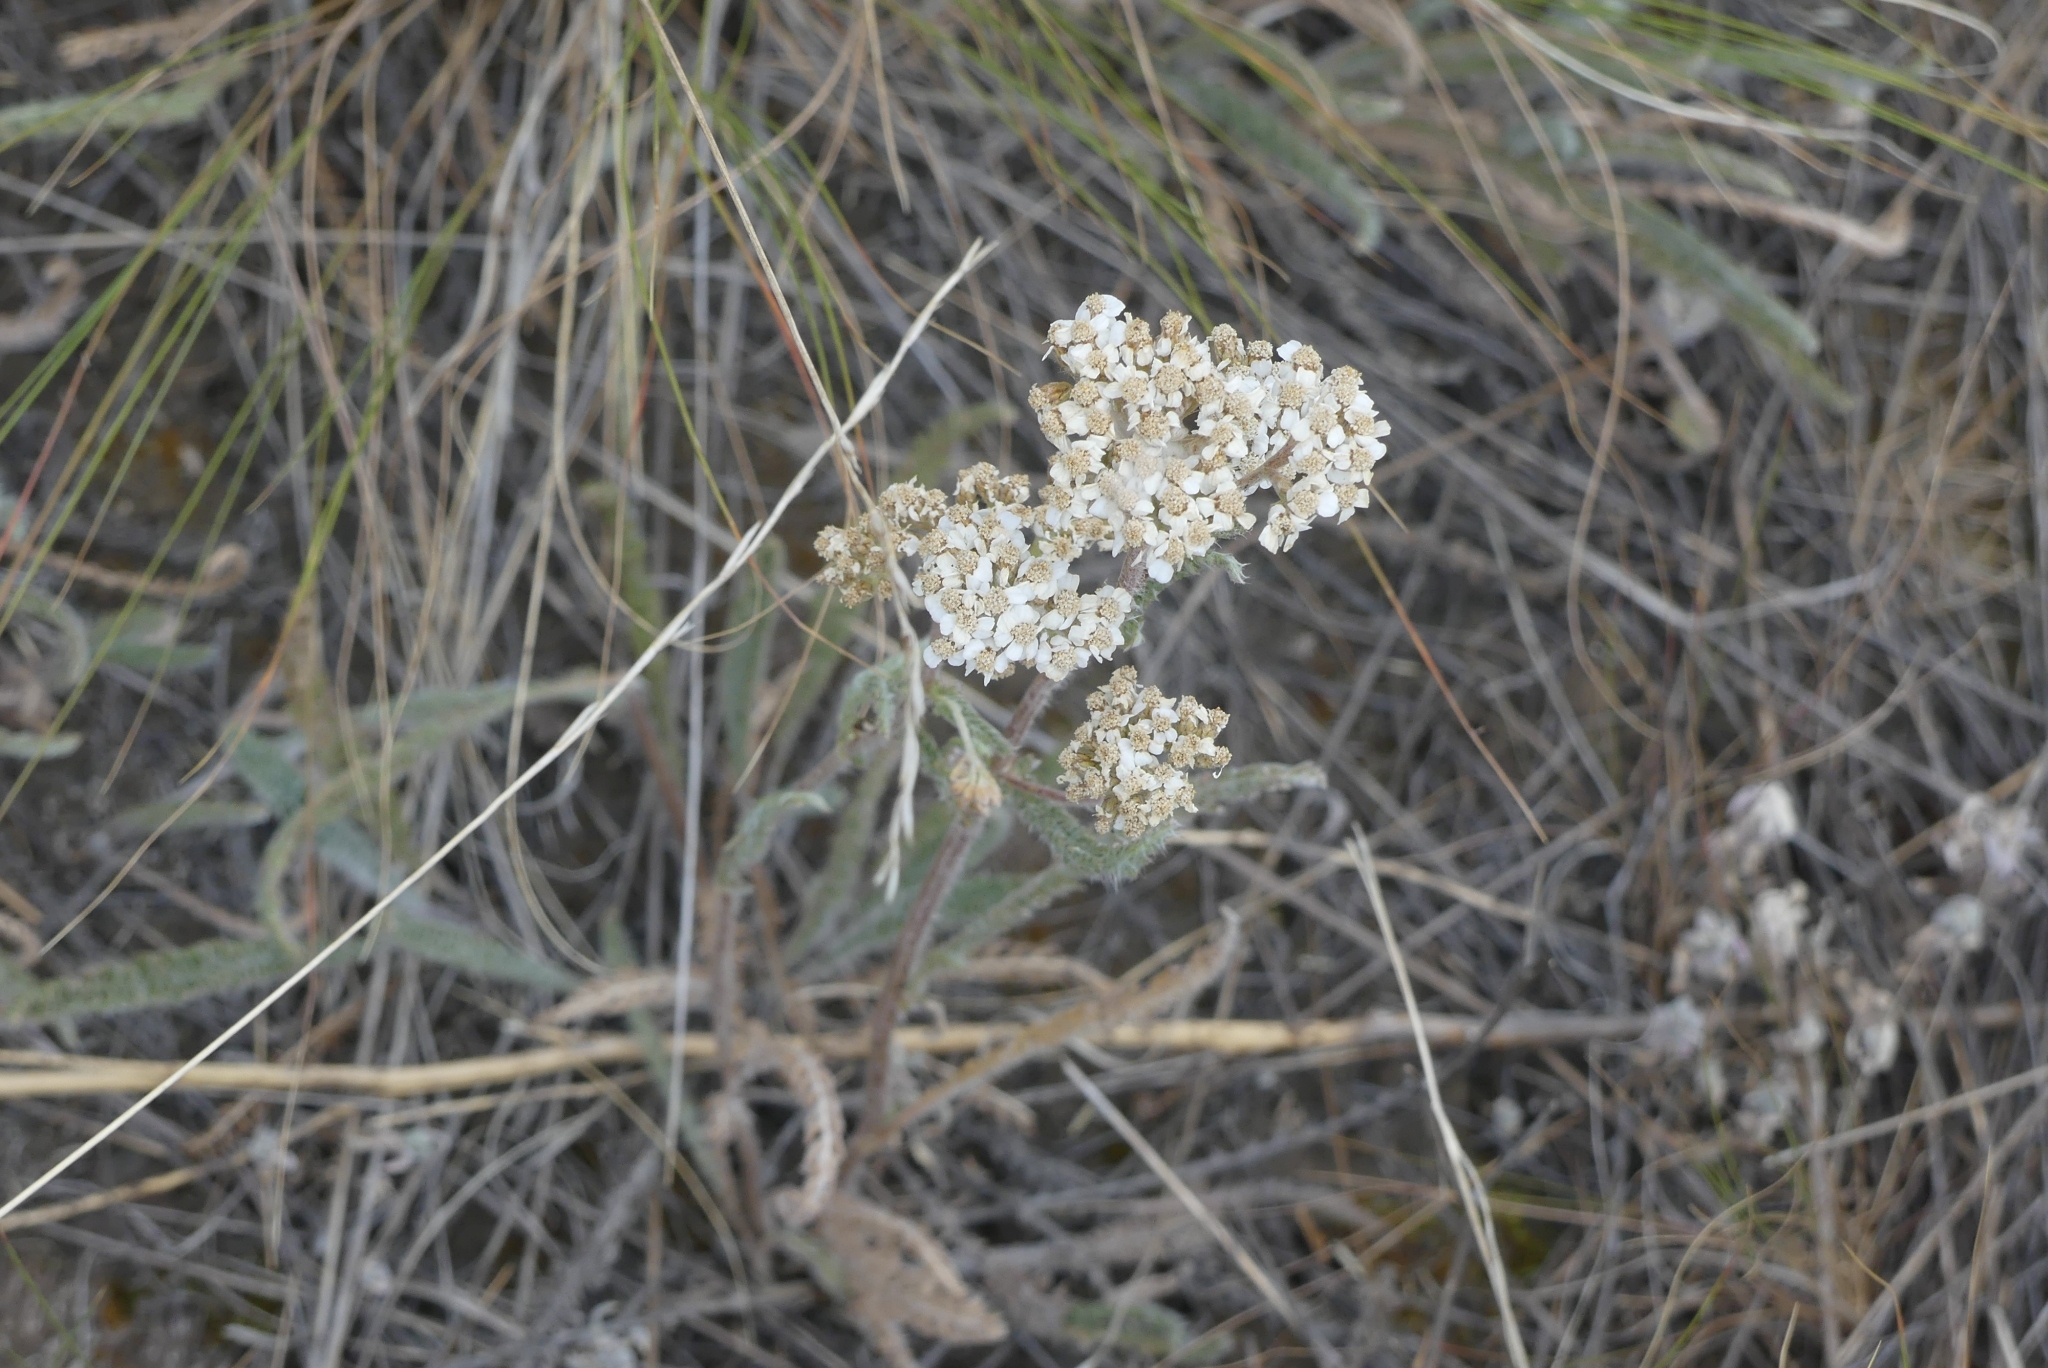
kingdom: Plantae
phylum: Tracheophyta
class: Magnoliopsida
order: Asterales
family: Asteraceae
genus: Achillea
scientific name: Achillea millefolium
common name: Yarrow
